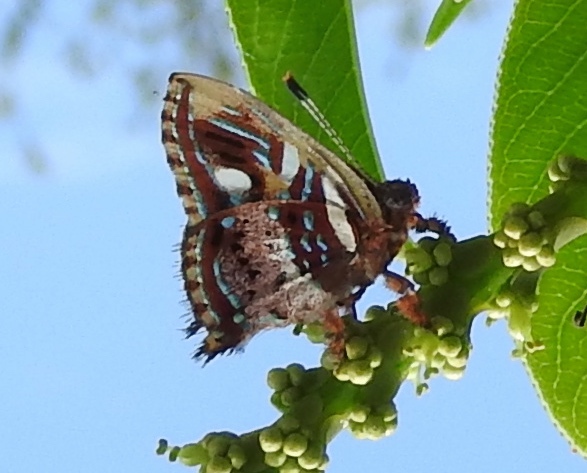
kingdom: Animalia
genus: Anteros
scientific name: Anteros carausius
